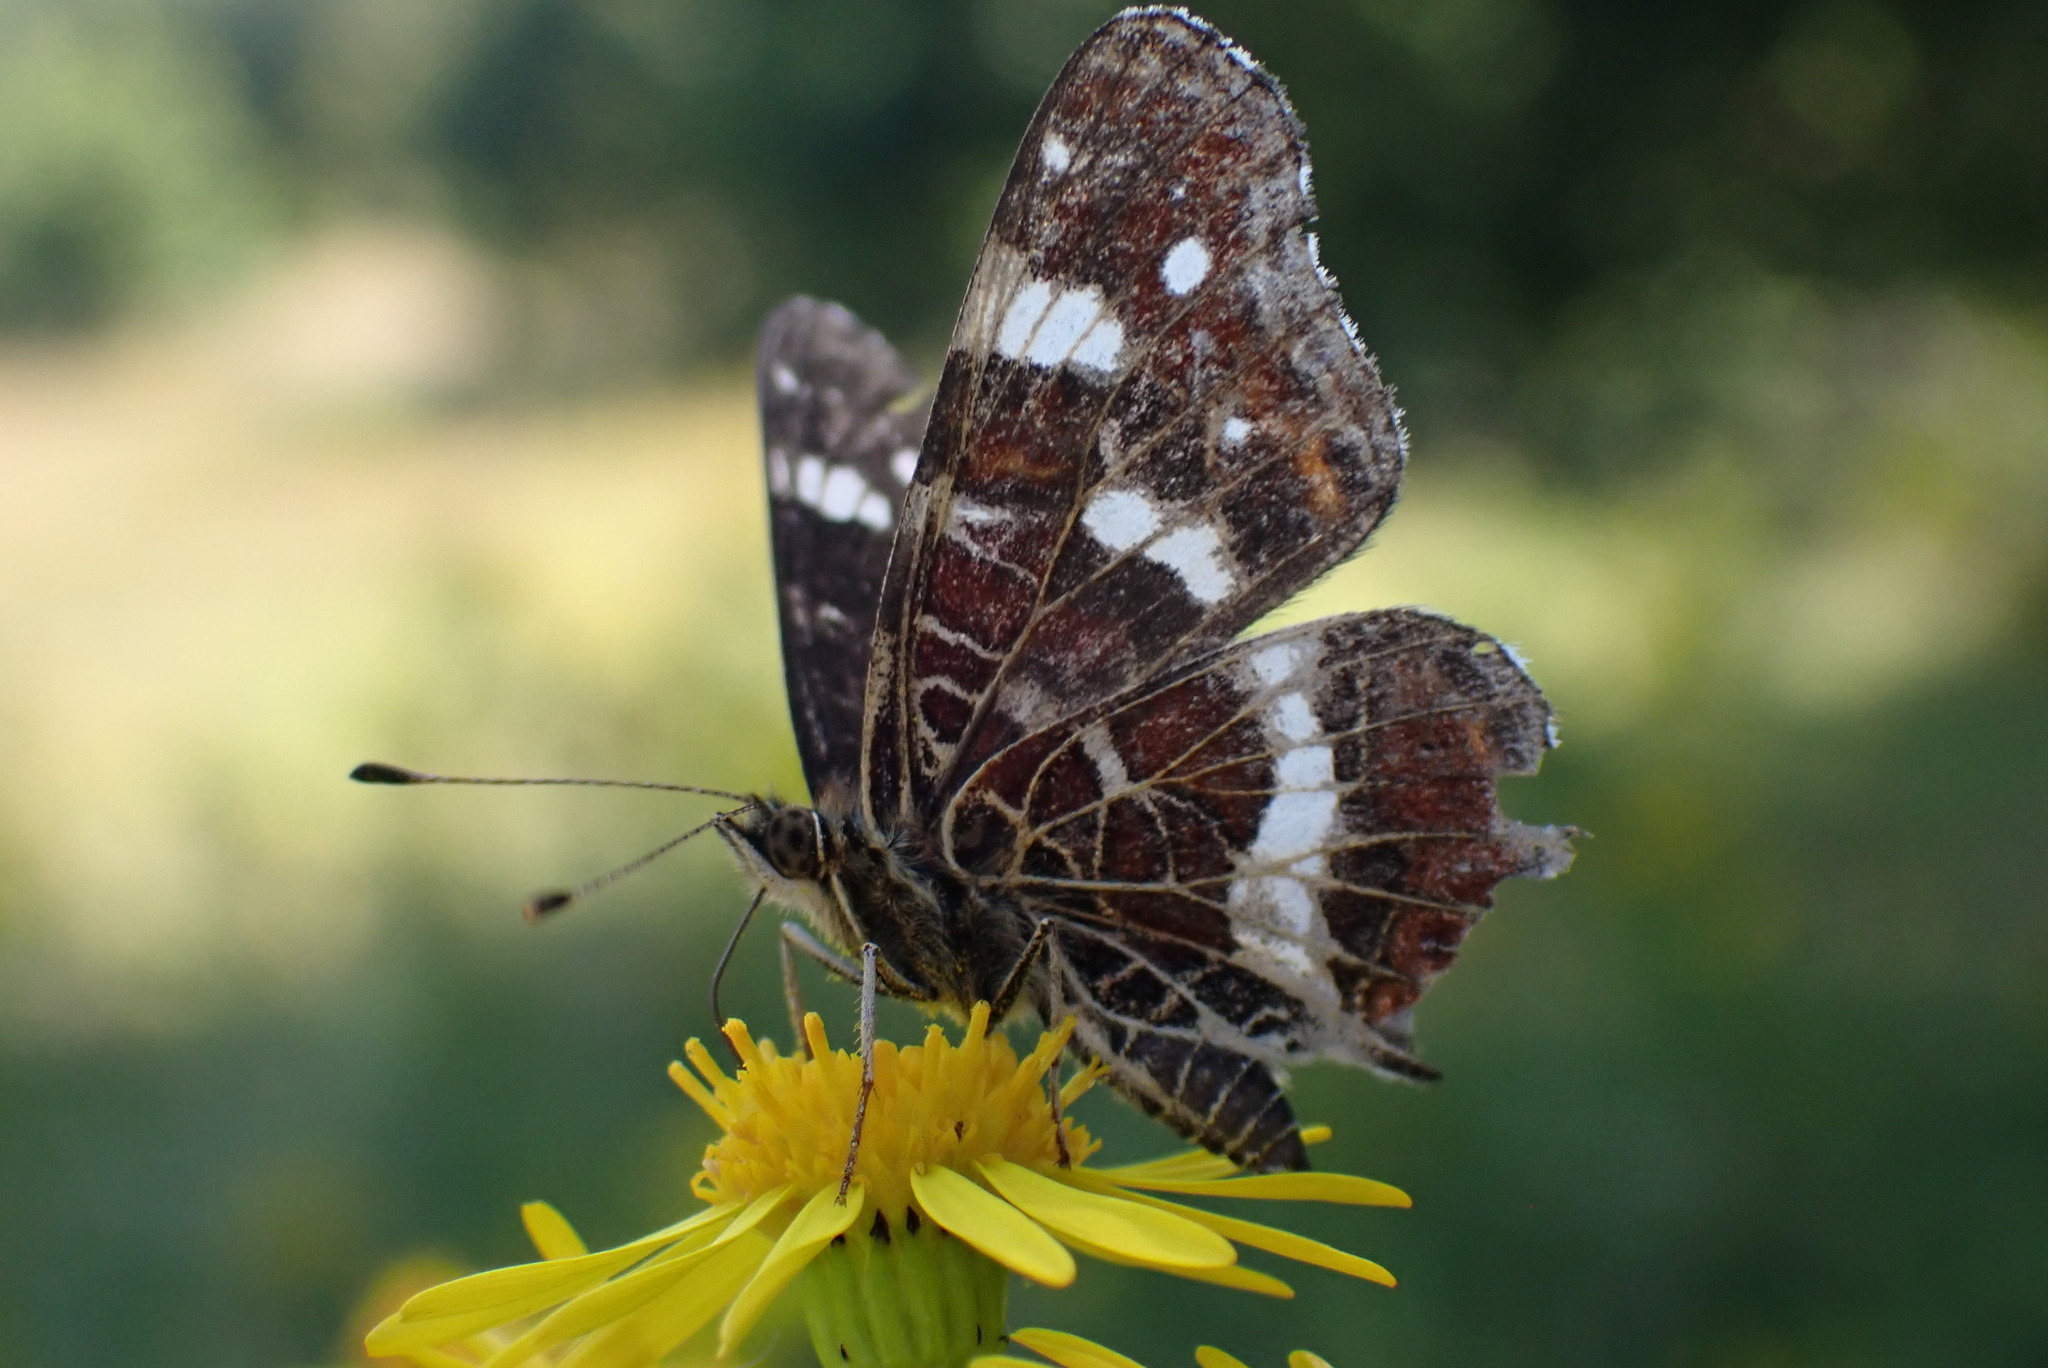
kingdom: Animalia
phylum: Arthropoda
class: Insecta
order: Lepidoptera
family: Nymphalidae
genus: Araschnia
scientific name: Araschnia levana
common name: Map butterfly
